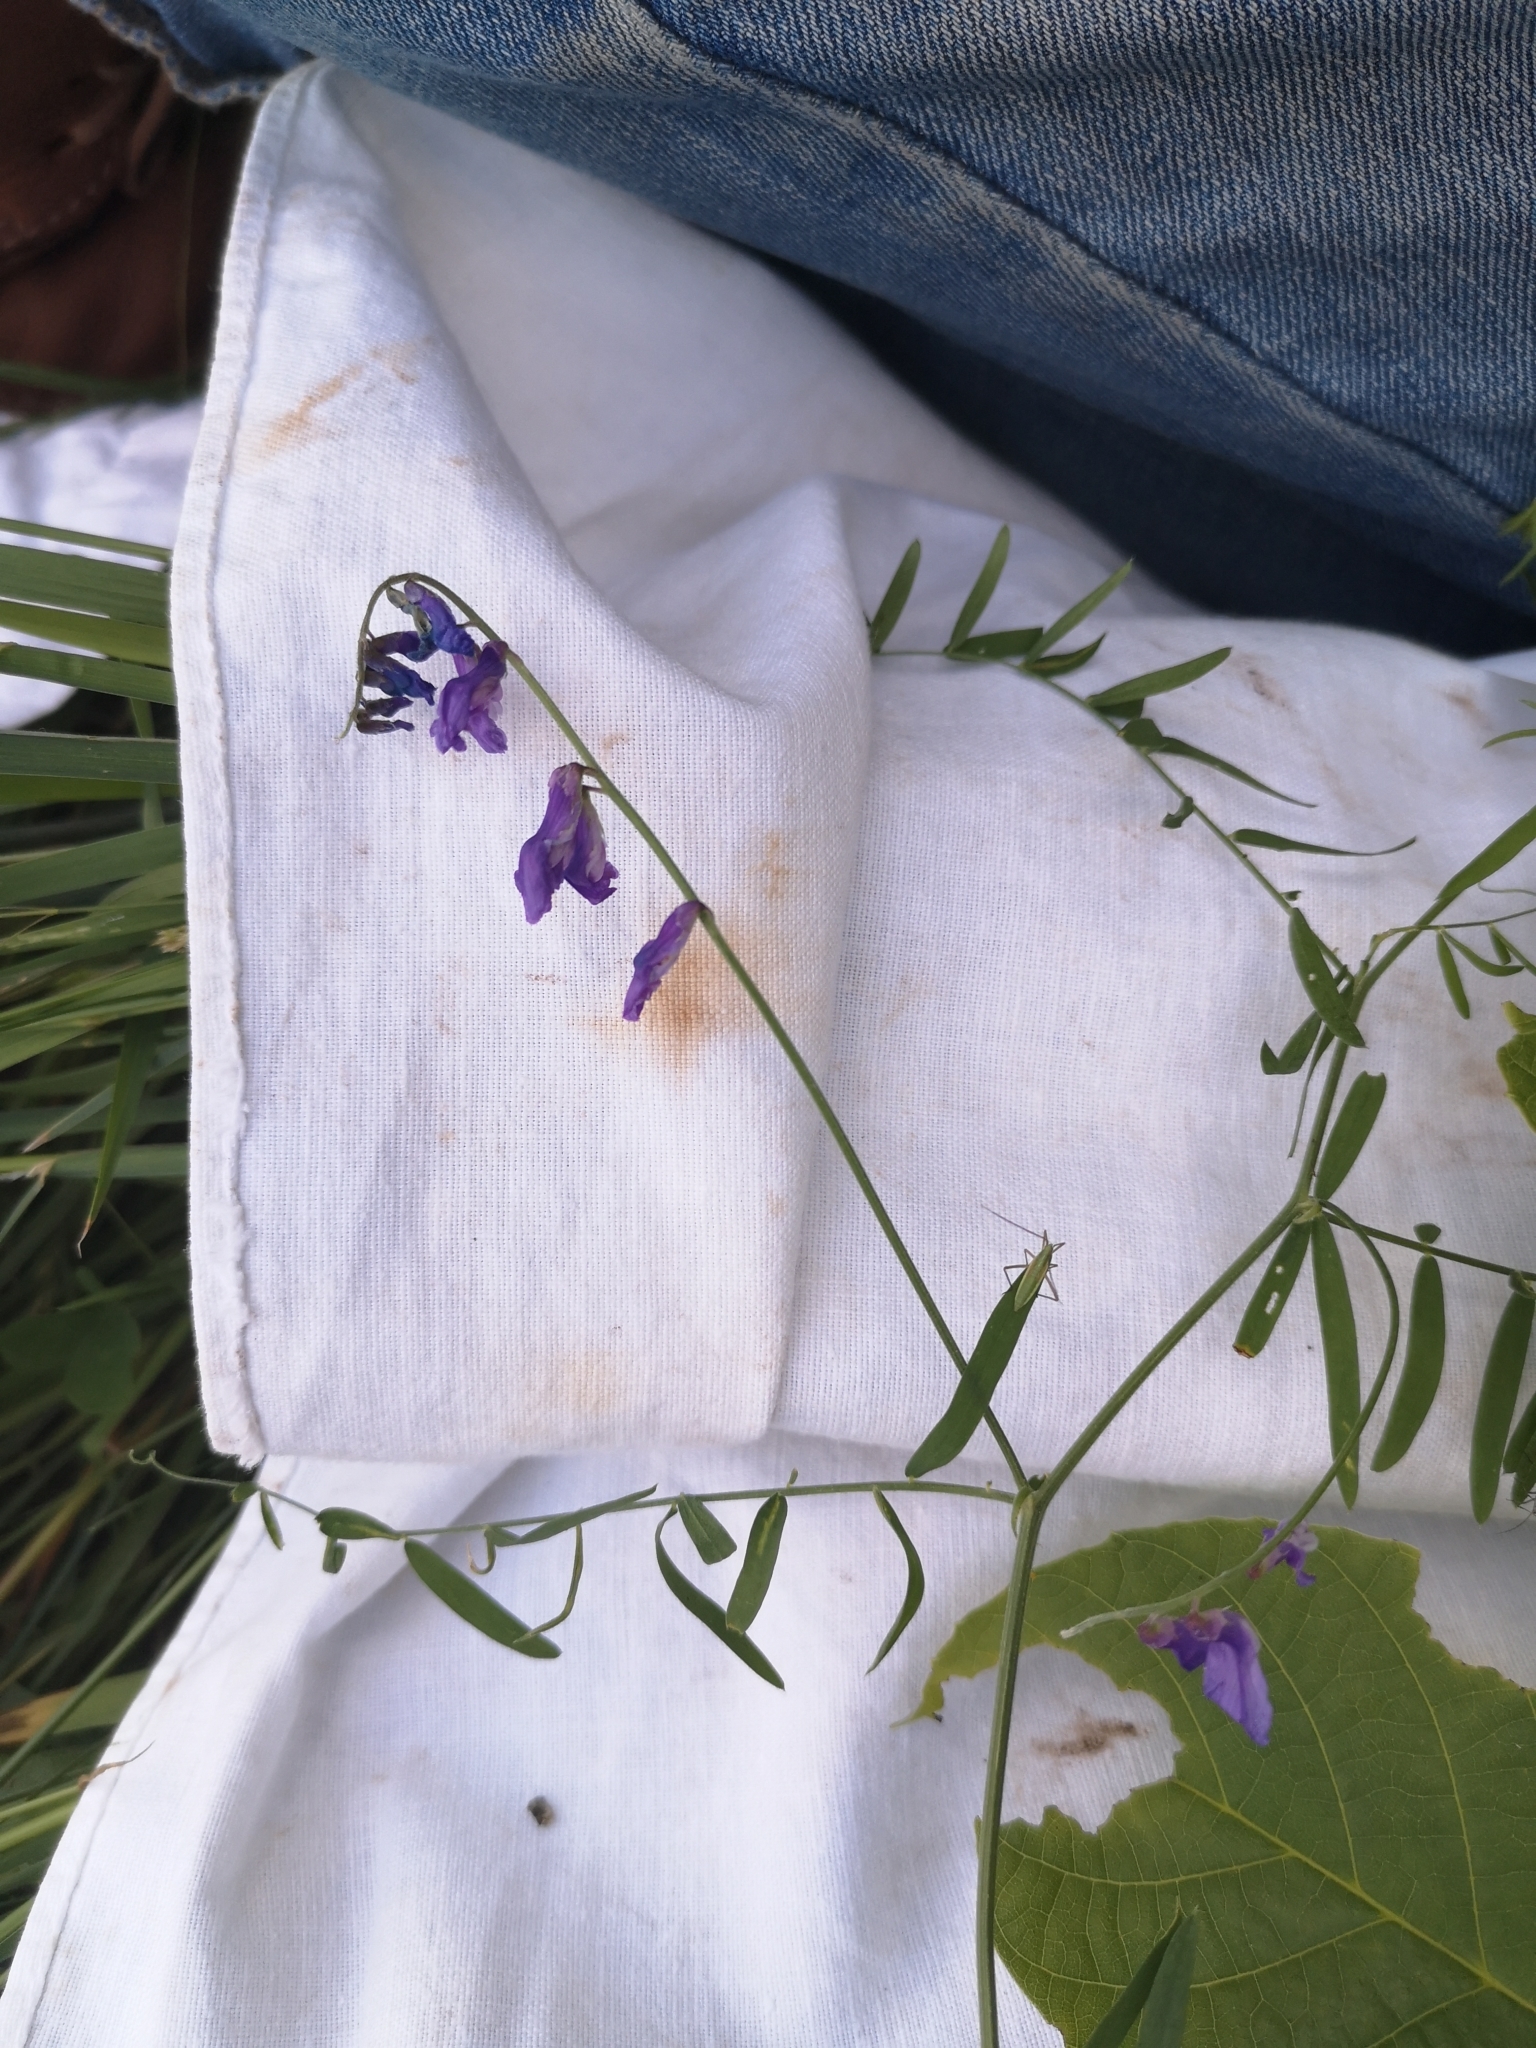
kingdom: Plantae
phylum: Tracheophyta
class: Magnoliopsida
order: Fabales
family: Fabaceae
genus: Vicia
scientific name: Vicia cracca
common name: Bird vetch
